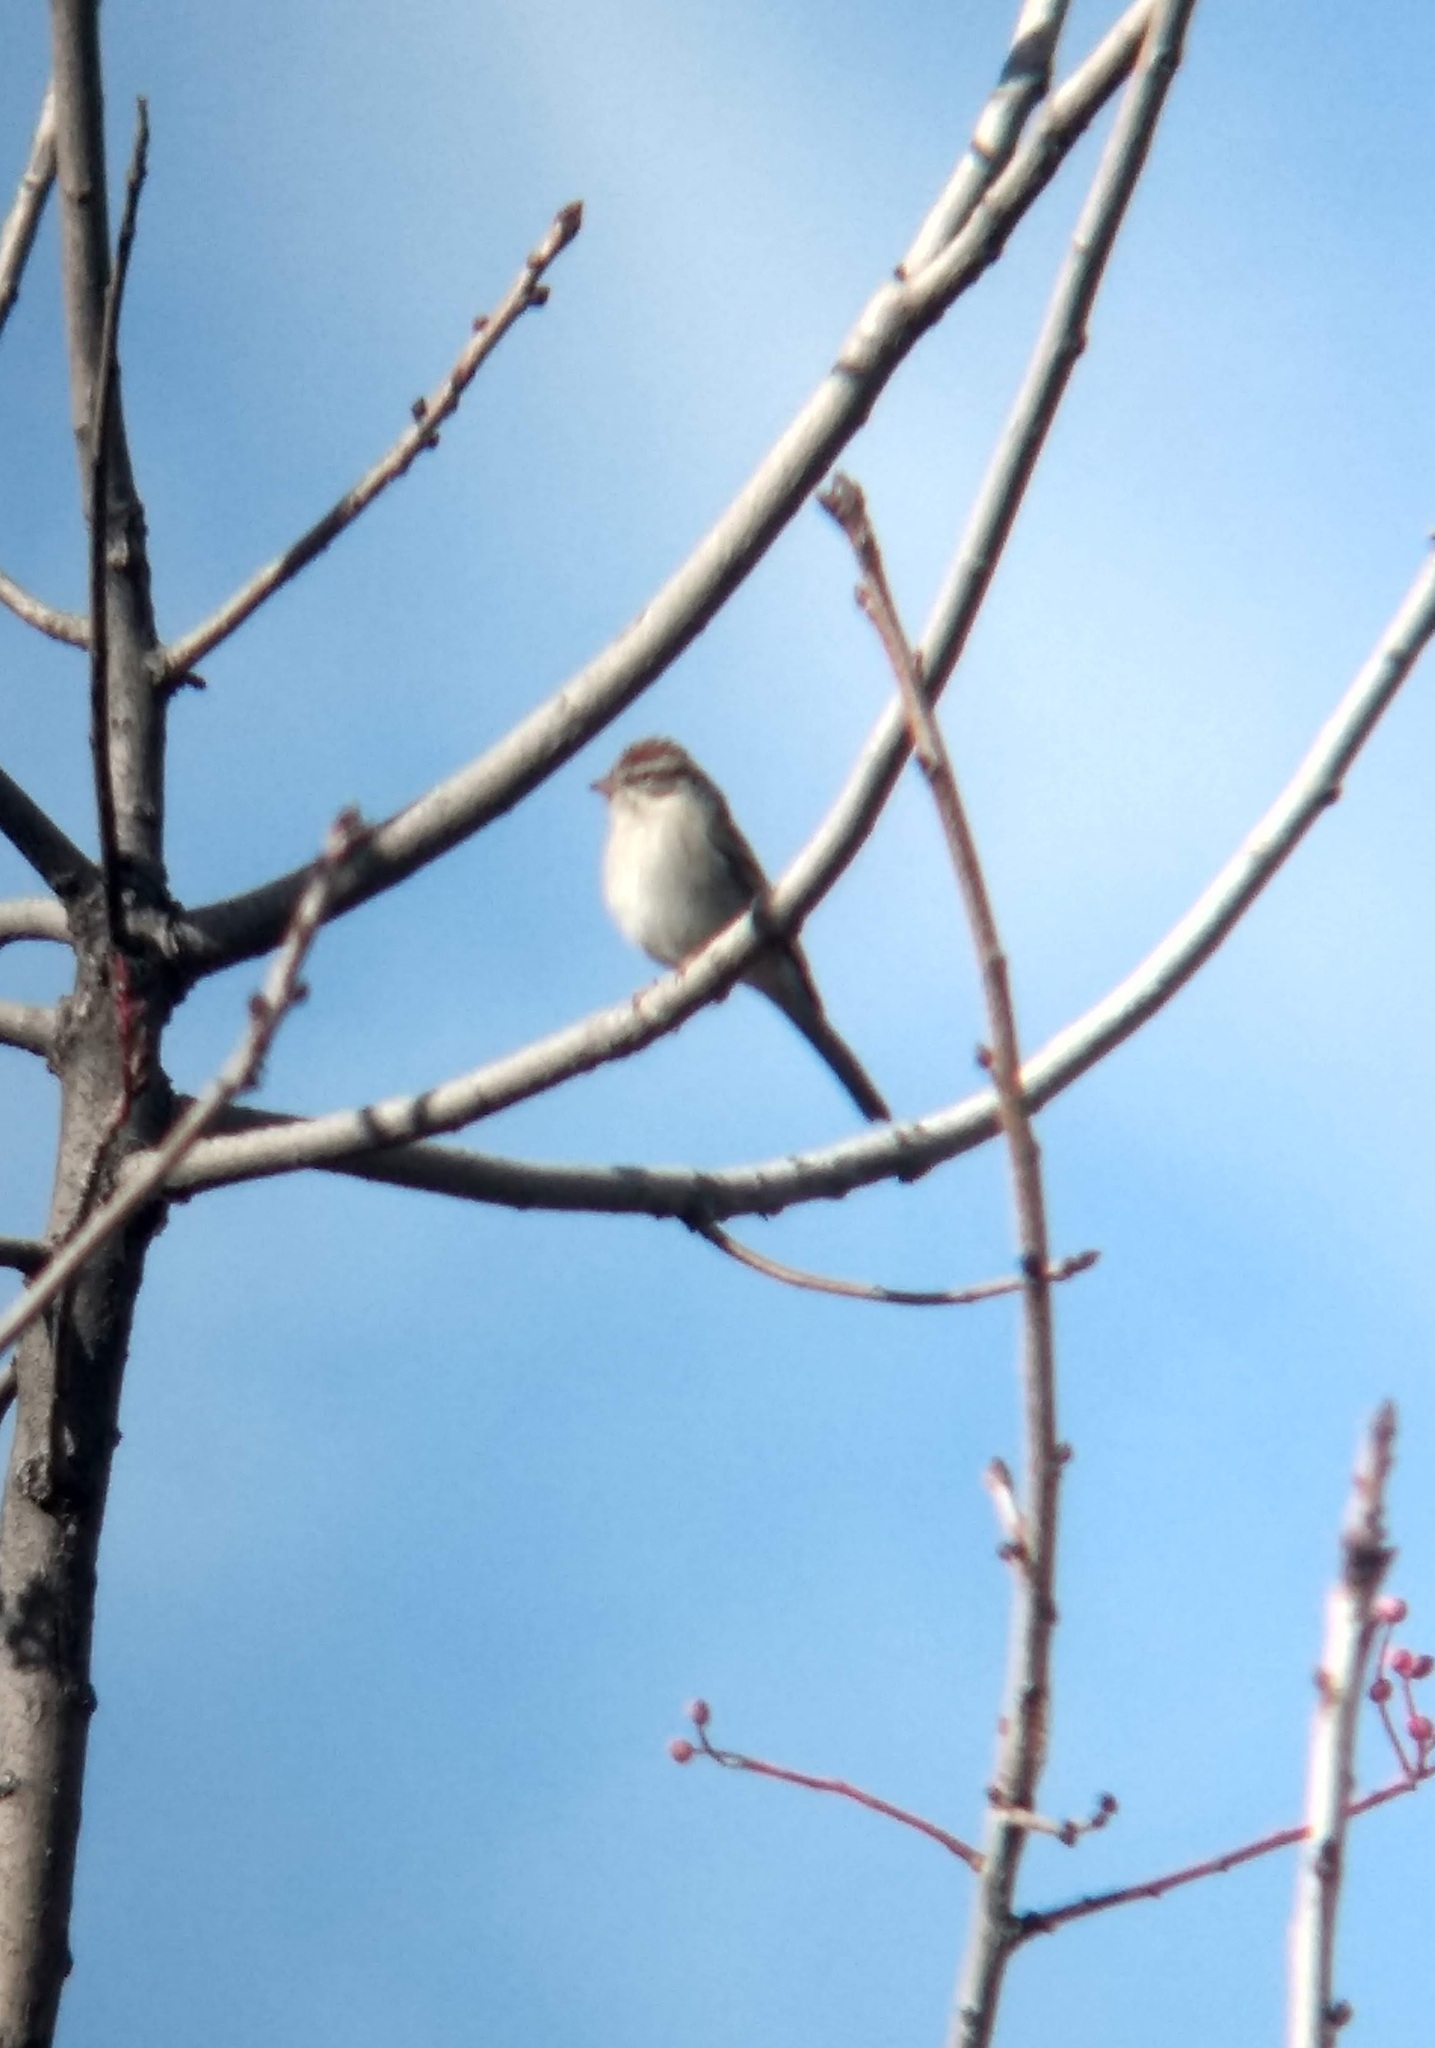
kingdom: Animalia
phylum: Chordata
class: Aves
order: Passeriformes
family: Passerellidae
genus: Spizella
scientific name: Spizella passerina
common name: Chipping sparrow
